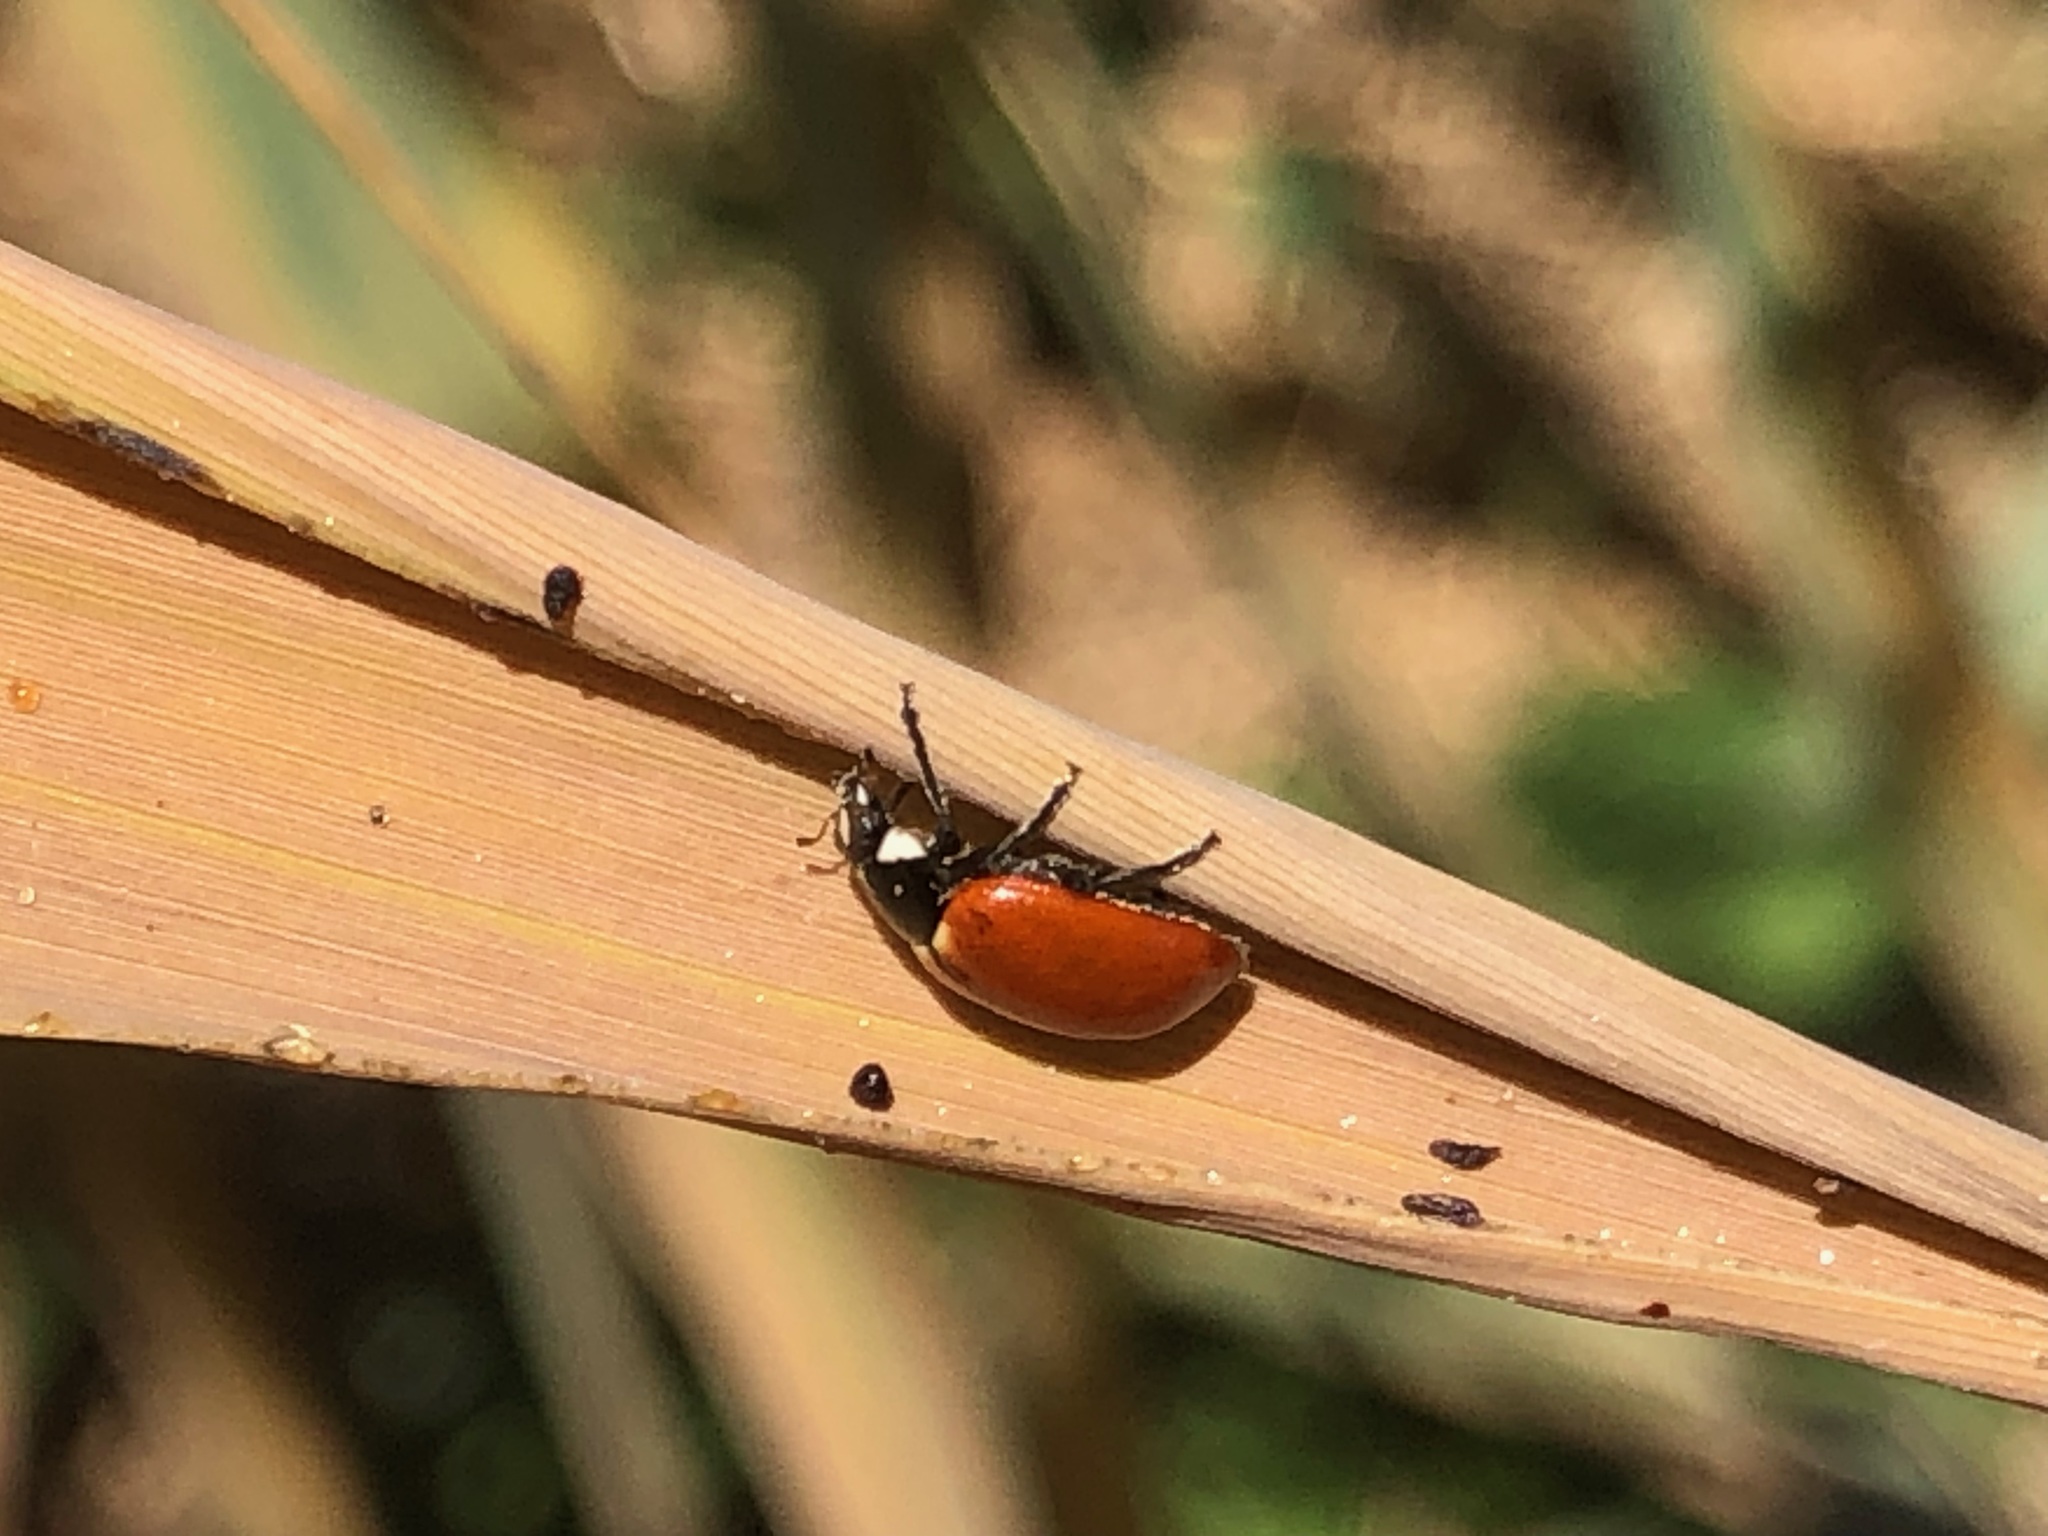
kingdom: Animalia
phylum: Arthropoda
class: Insecta
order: Coleoptera
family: Coccinellidae
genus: Coccinella
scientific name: Coccinella californica
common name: Lady beetle
